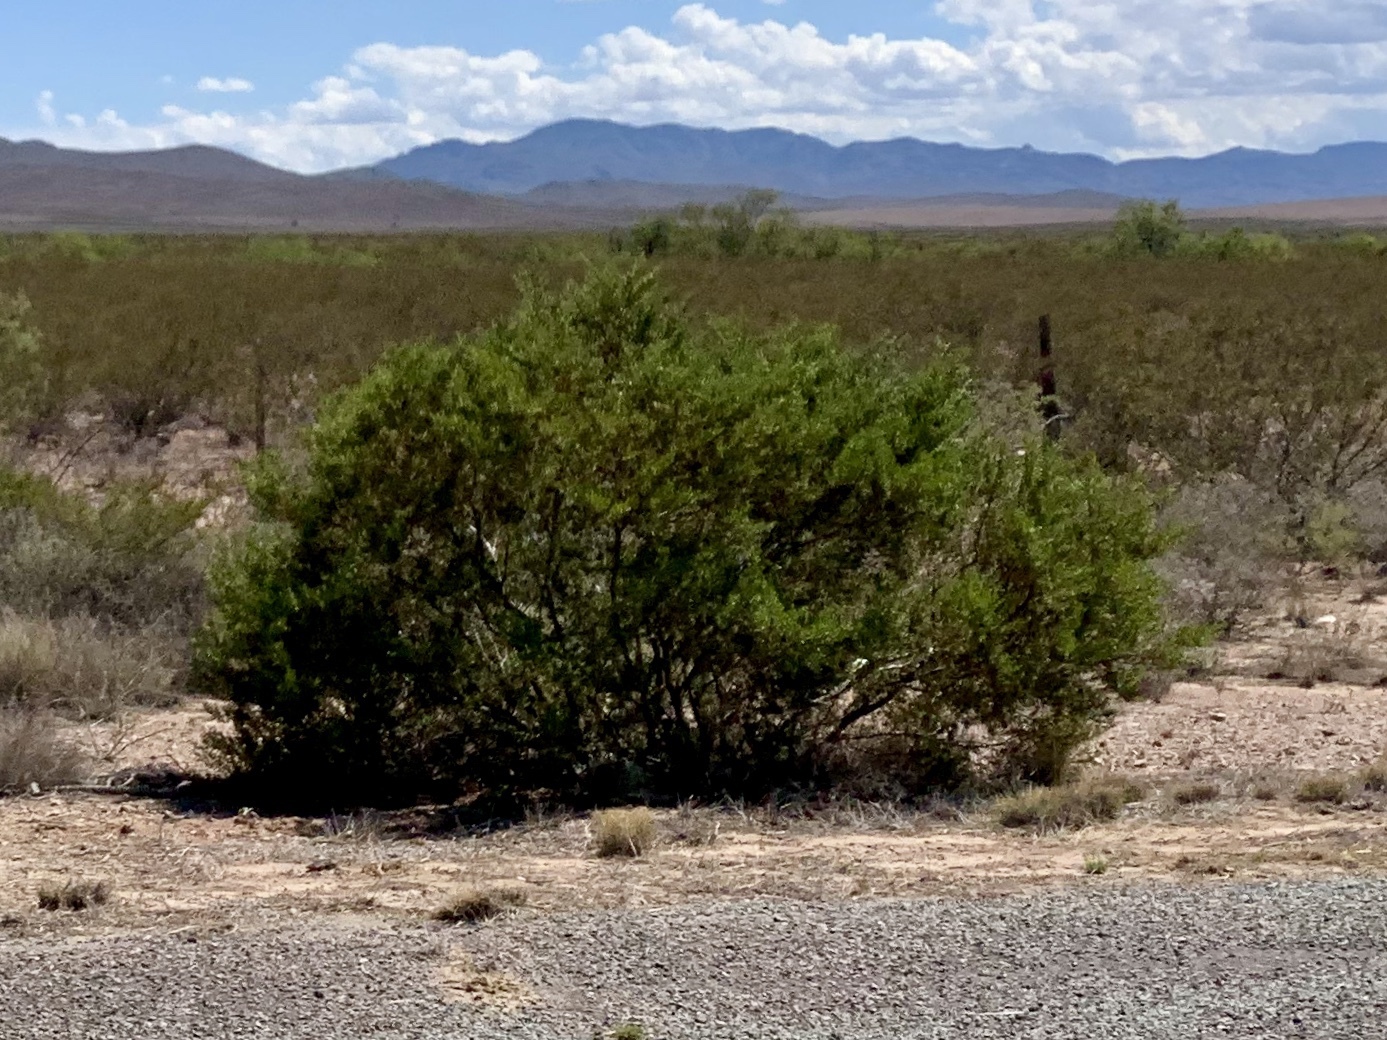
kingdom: Plantae
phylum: Tracheophyta
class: Magnoliopsida
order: Zygophyllales
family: Zygophyllaceae
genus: Larrea
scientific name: Larrea tridentata
